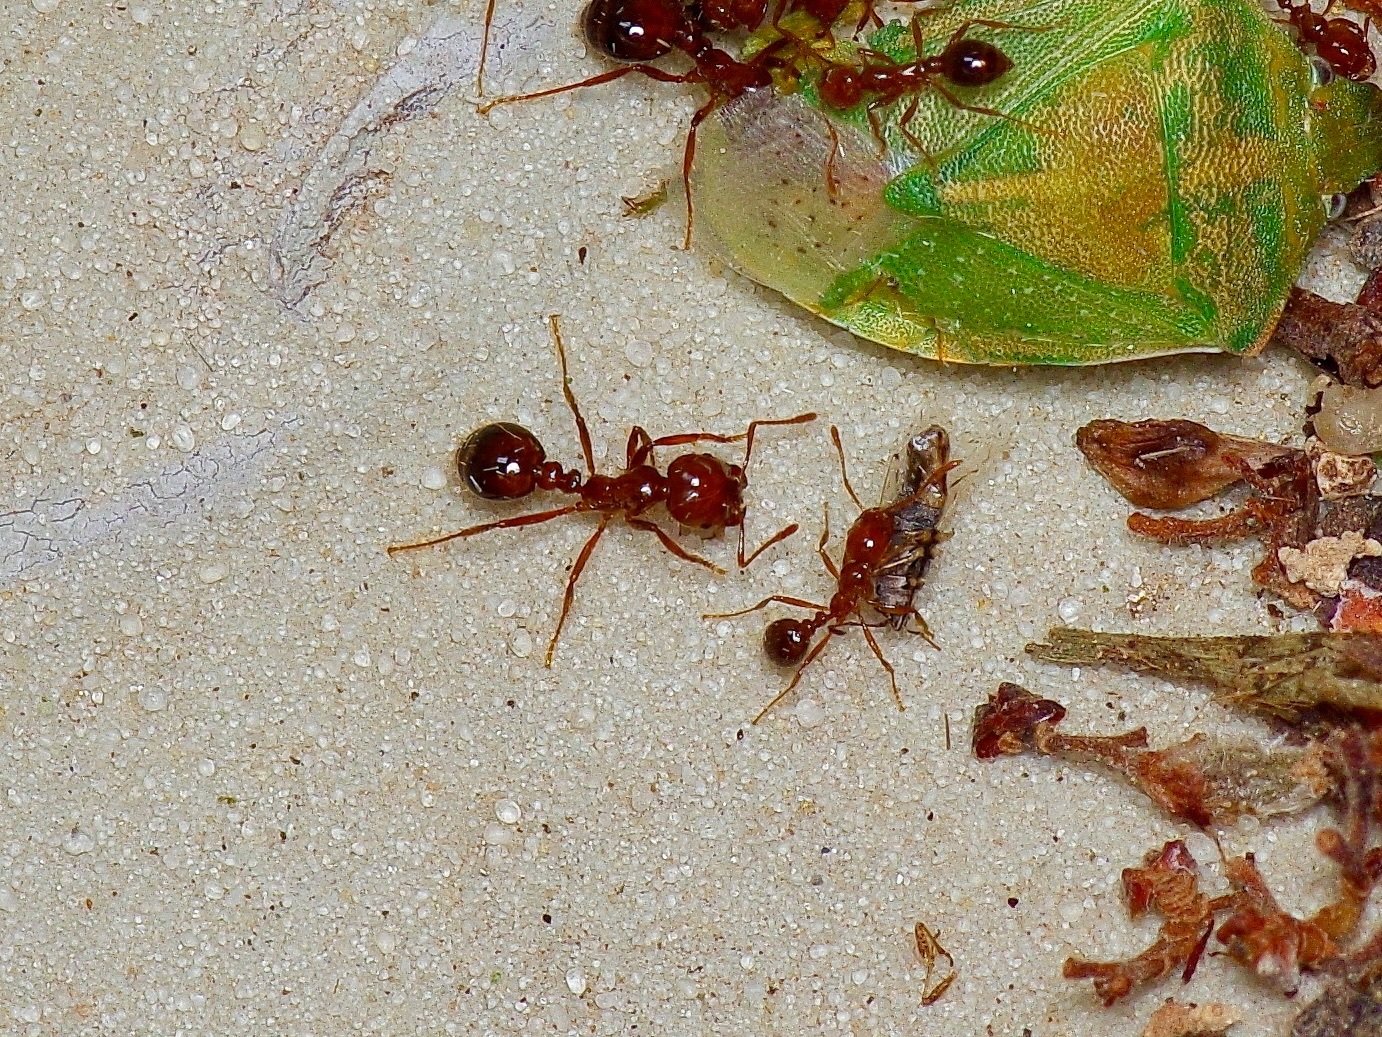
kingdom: Animalia
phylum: Arthropoda
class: Insecta
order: Hymenoptera
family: Formicidae
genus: Solenopsis
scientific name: Solenopsis invicta
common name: Red imported fire ant
